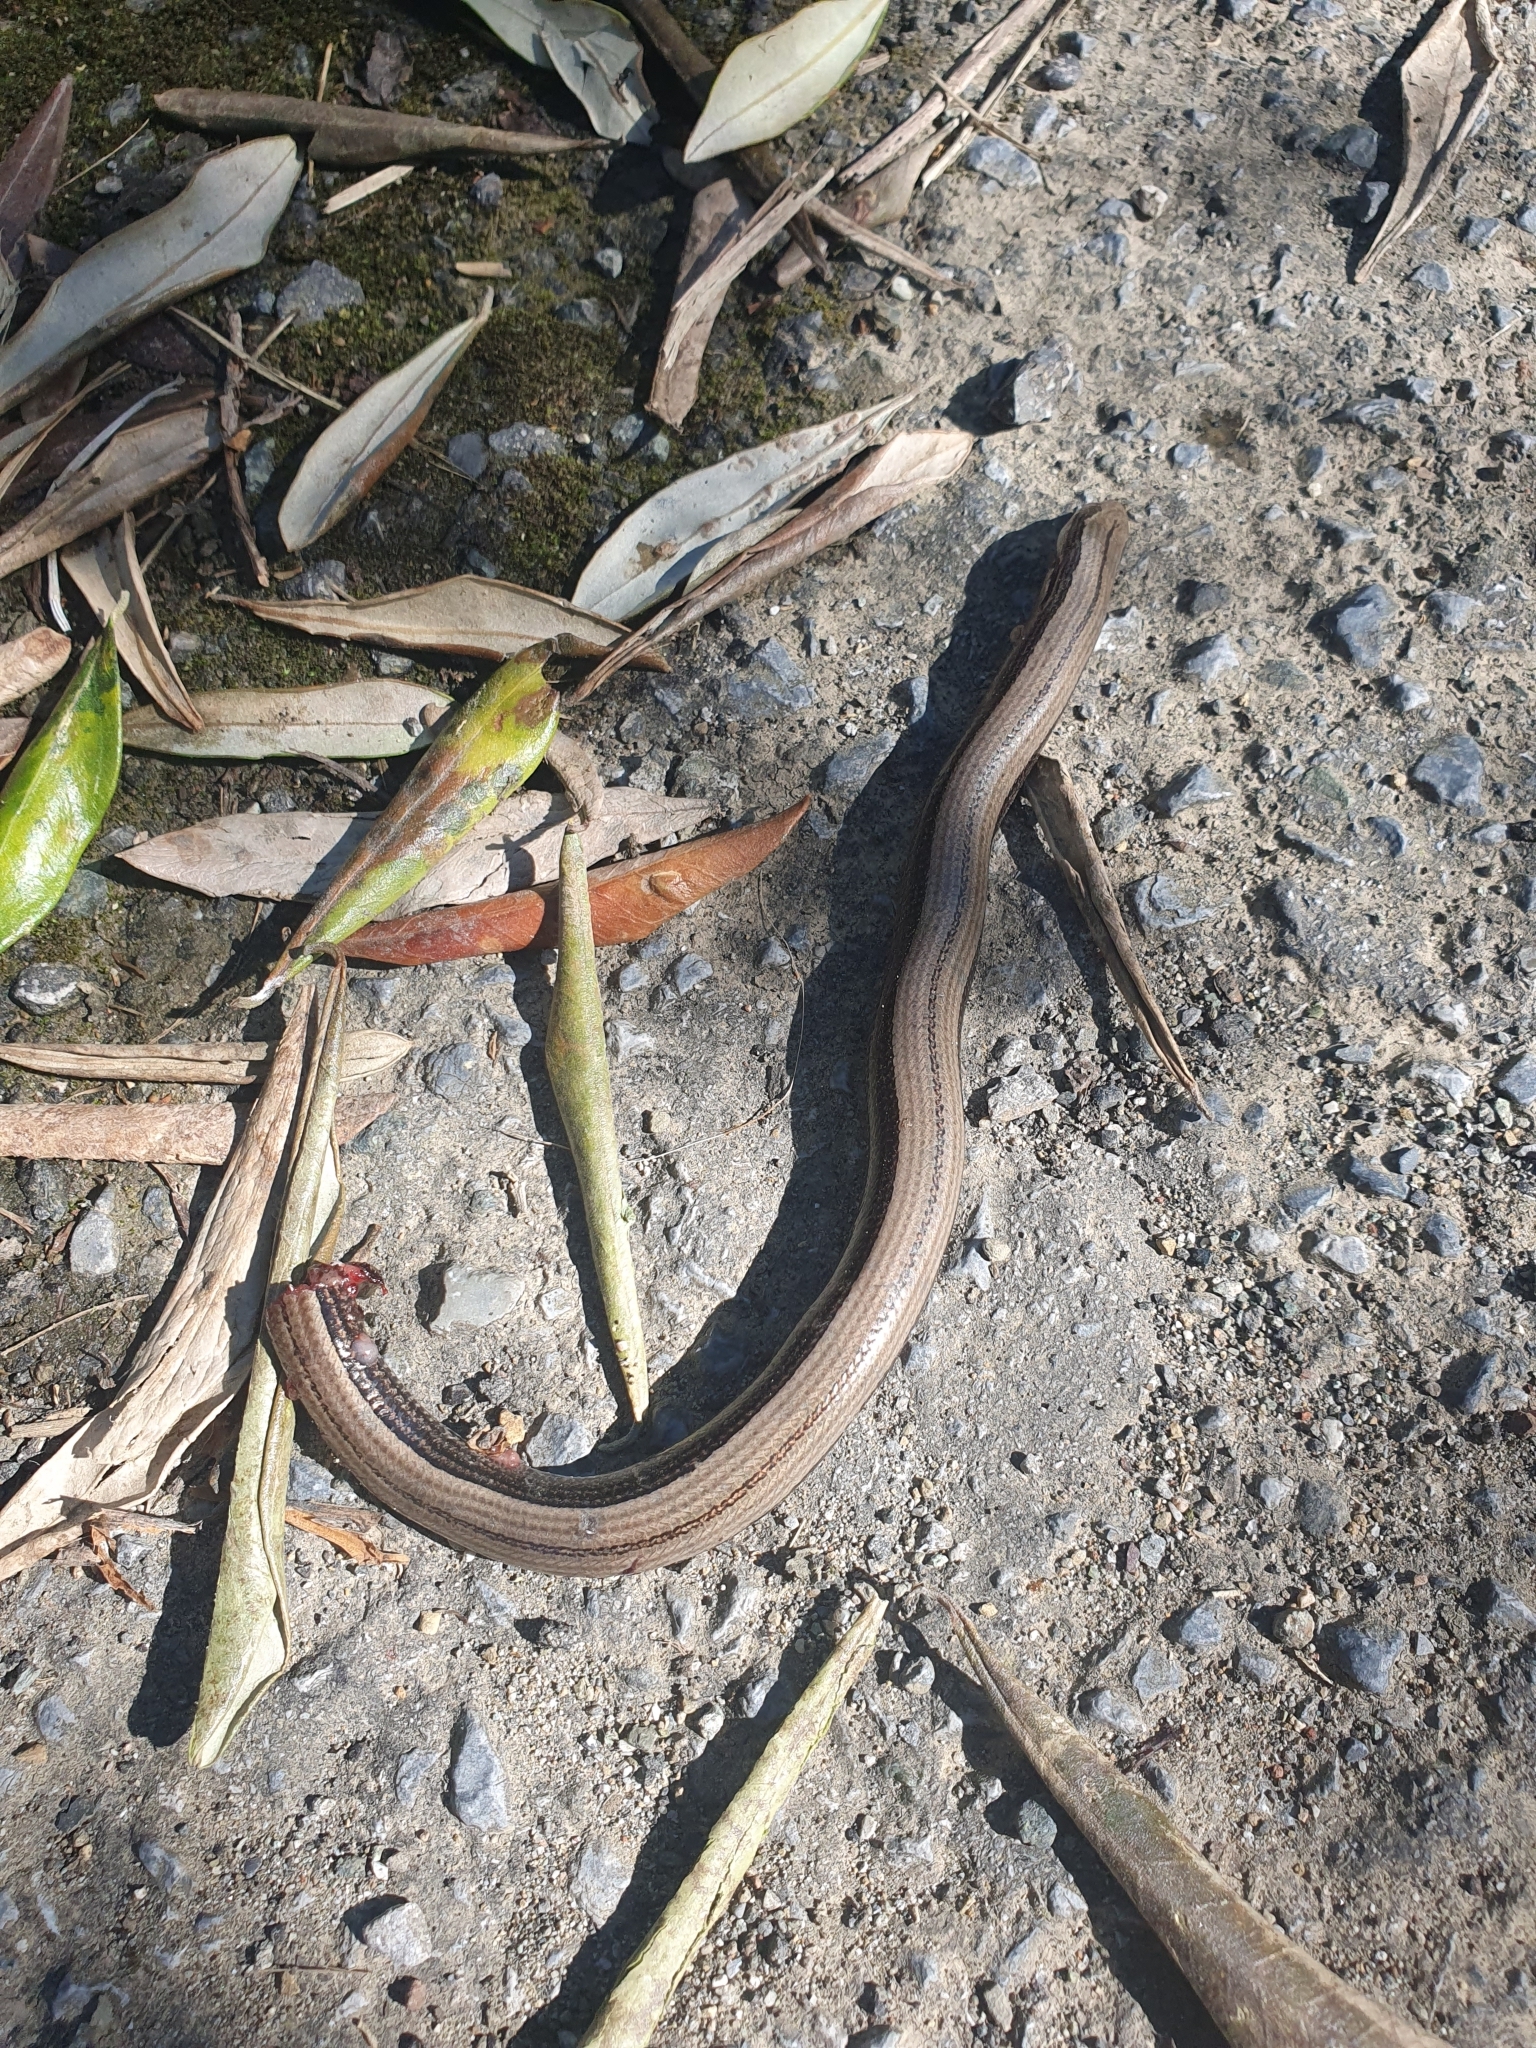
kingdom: Animalia
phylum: Chordata
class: Squamata
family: Anguidae
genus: Anguis
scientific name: Anguis veronensis
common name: Italian slow worm
